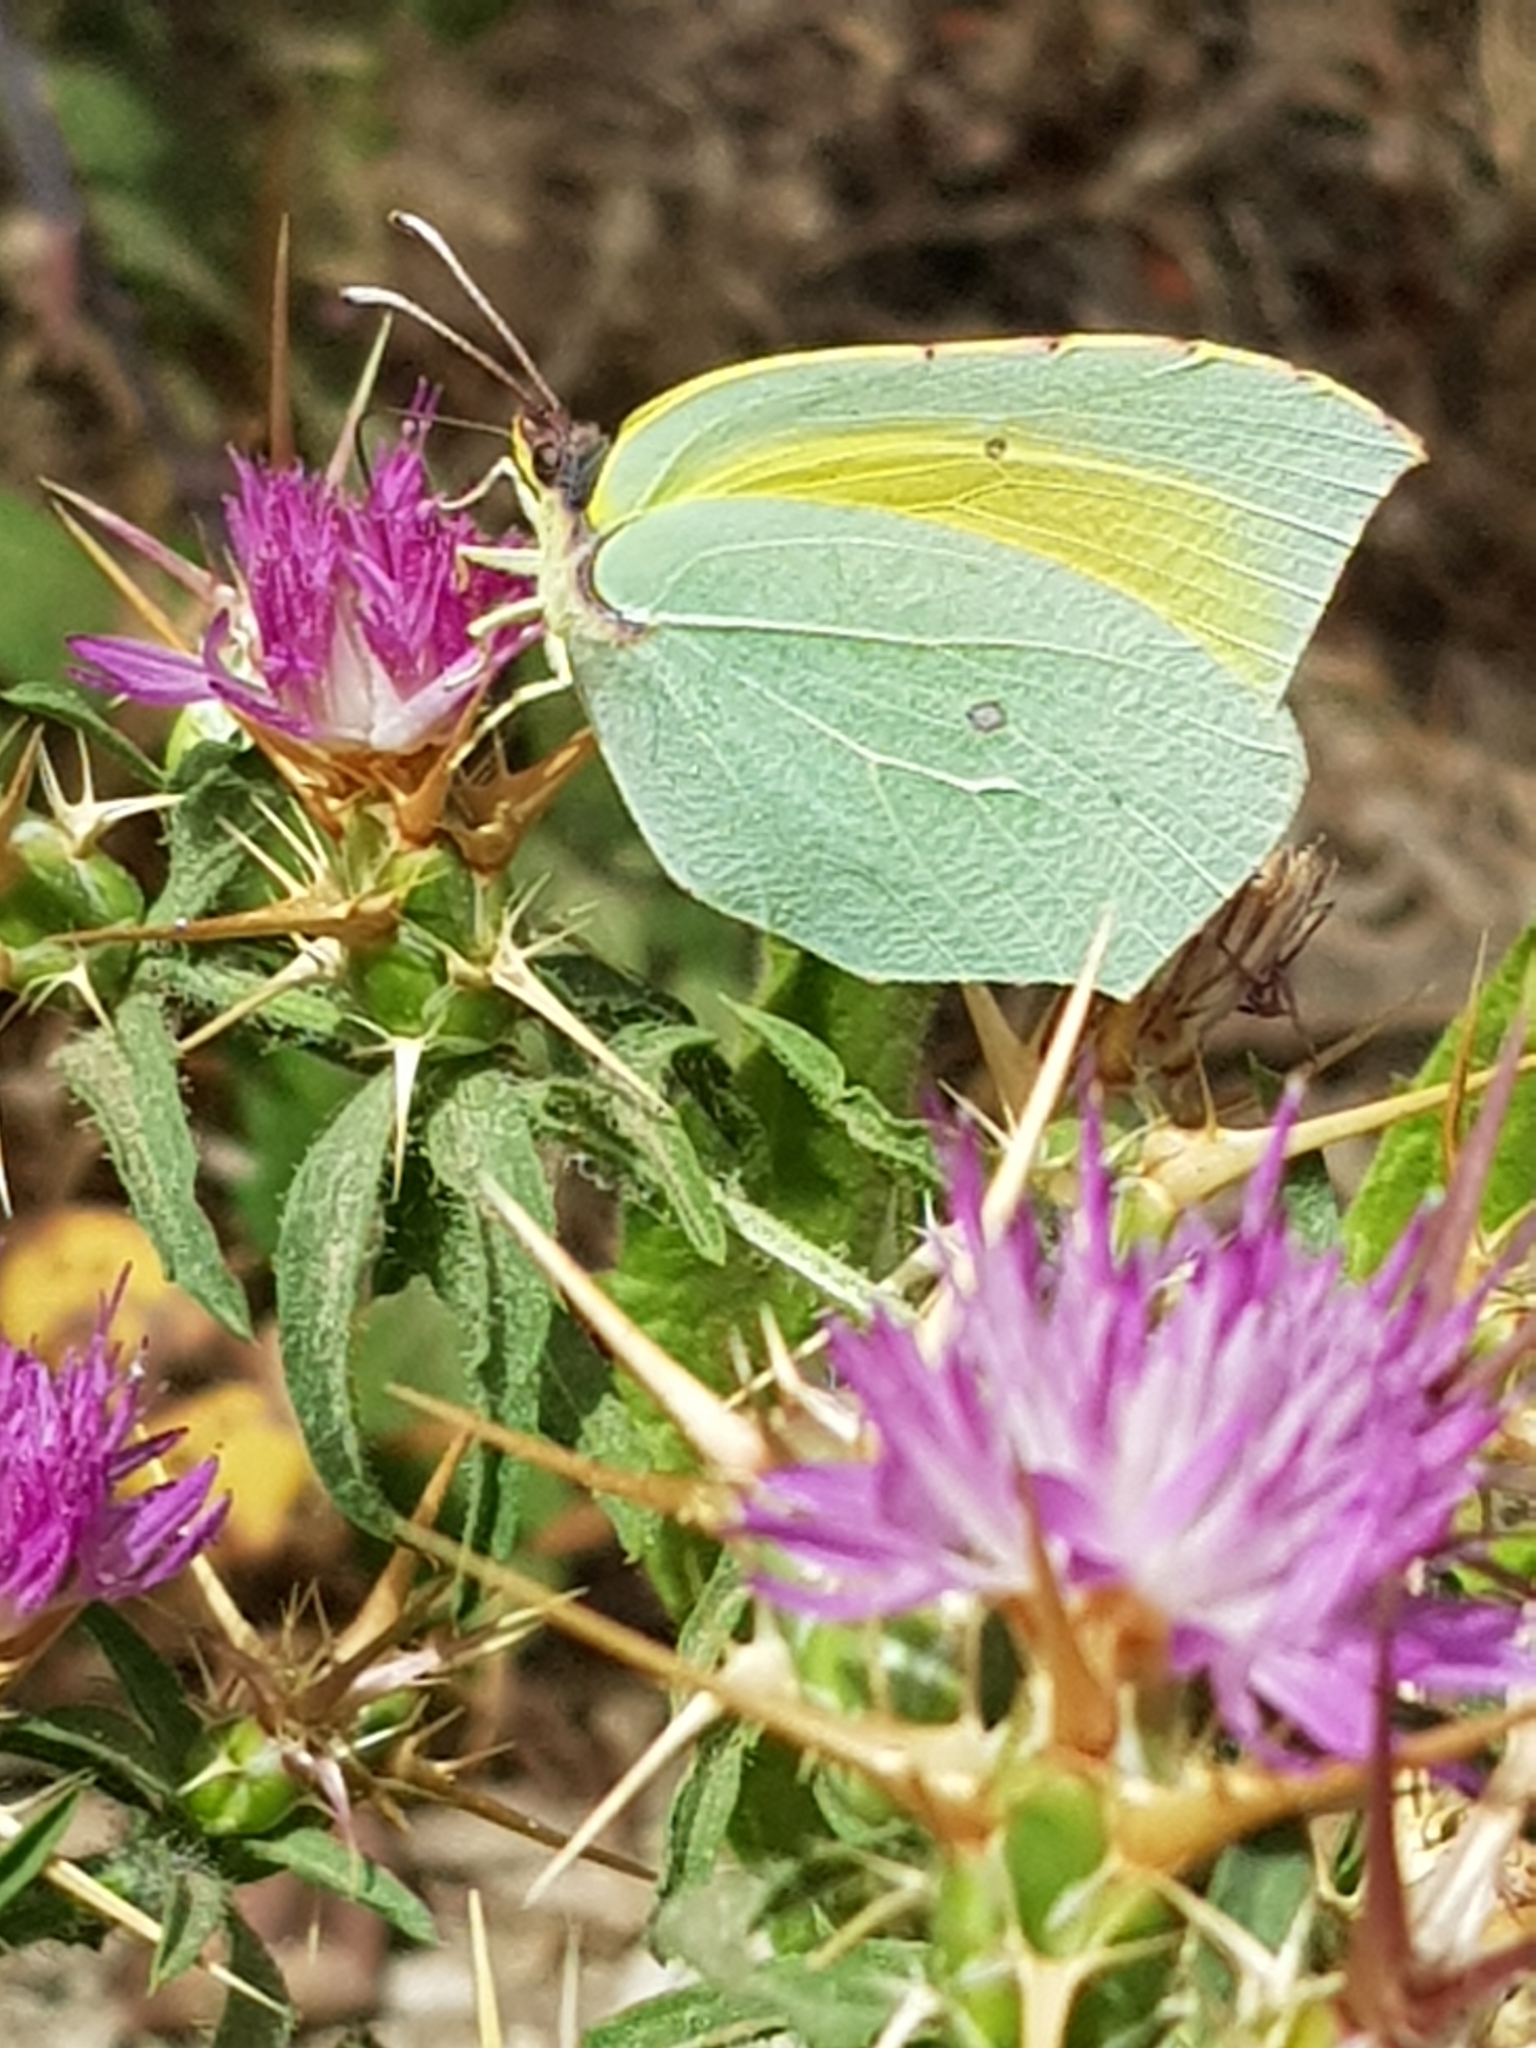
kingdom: Animalia
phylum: Arthropoda
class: Insecta
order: Lepidoptera
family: Pieridae
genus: Gonepteryx
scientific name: Gonepteryx cleopatra
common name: Cleopatra
